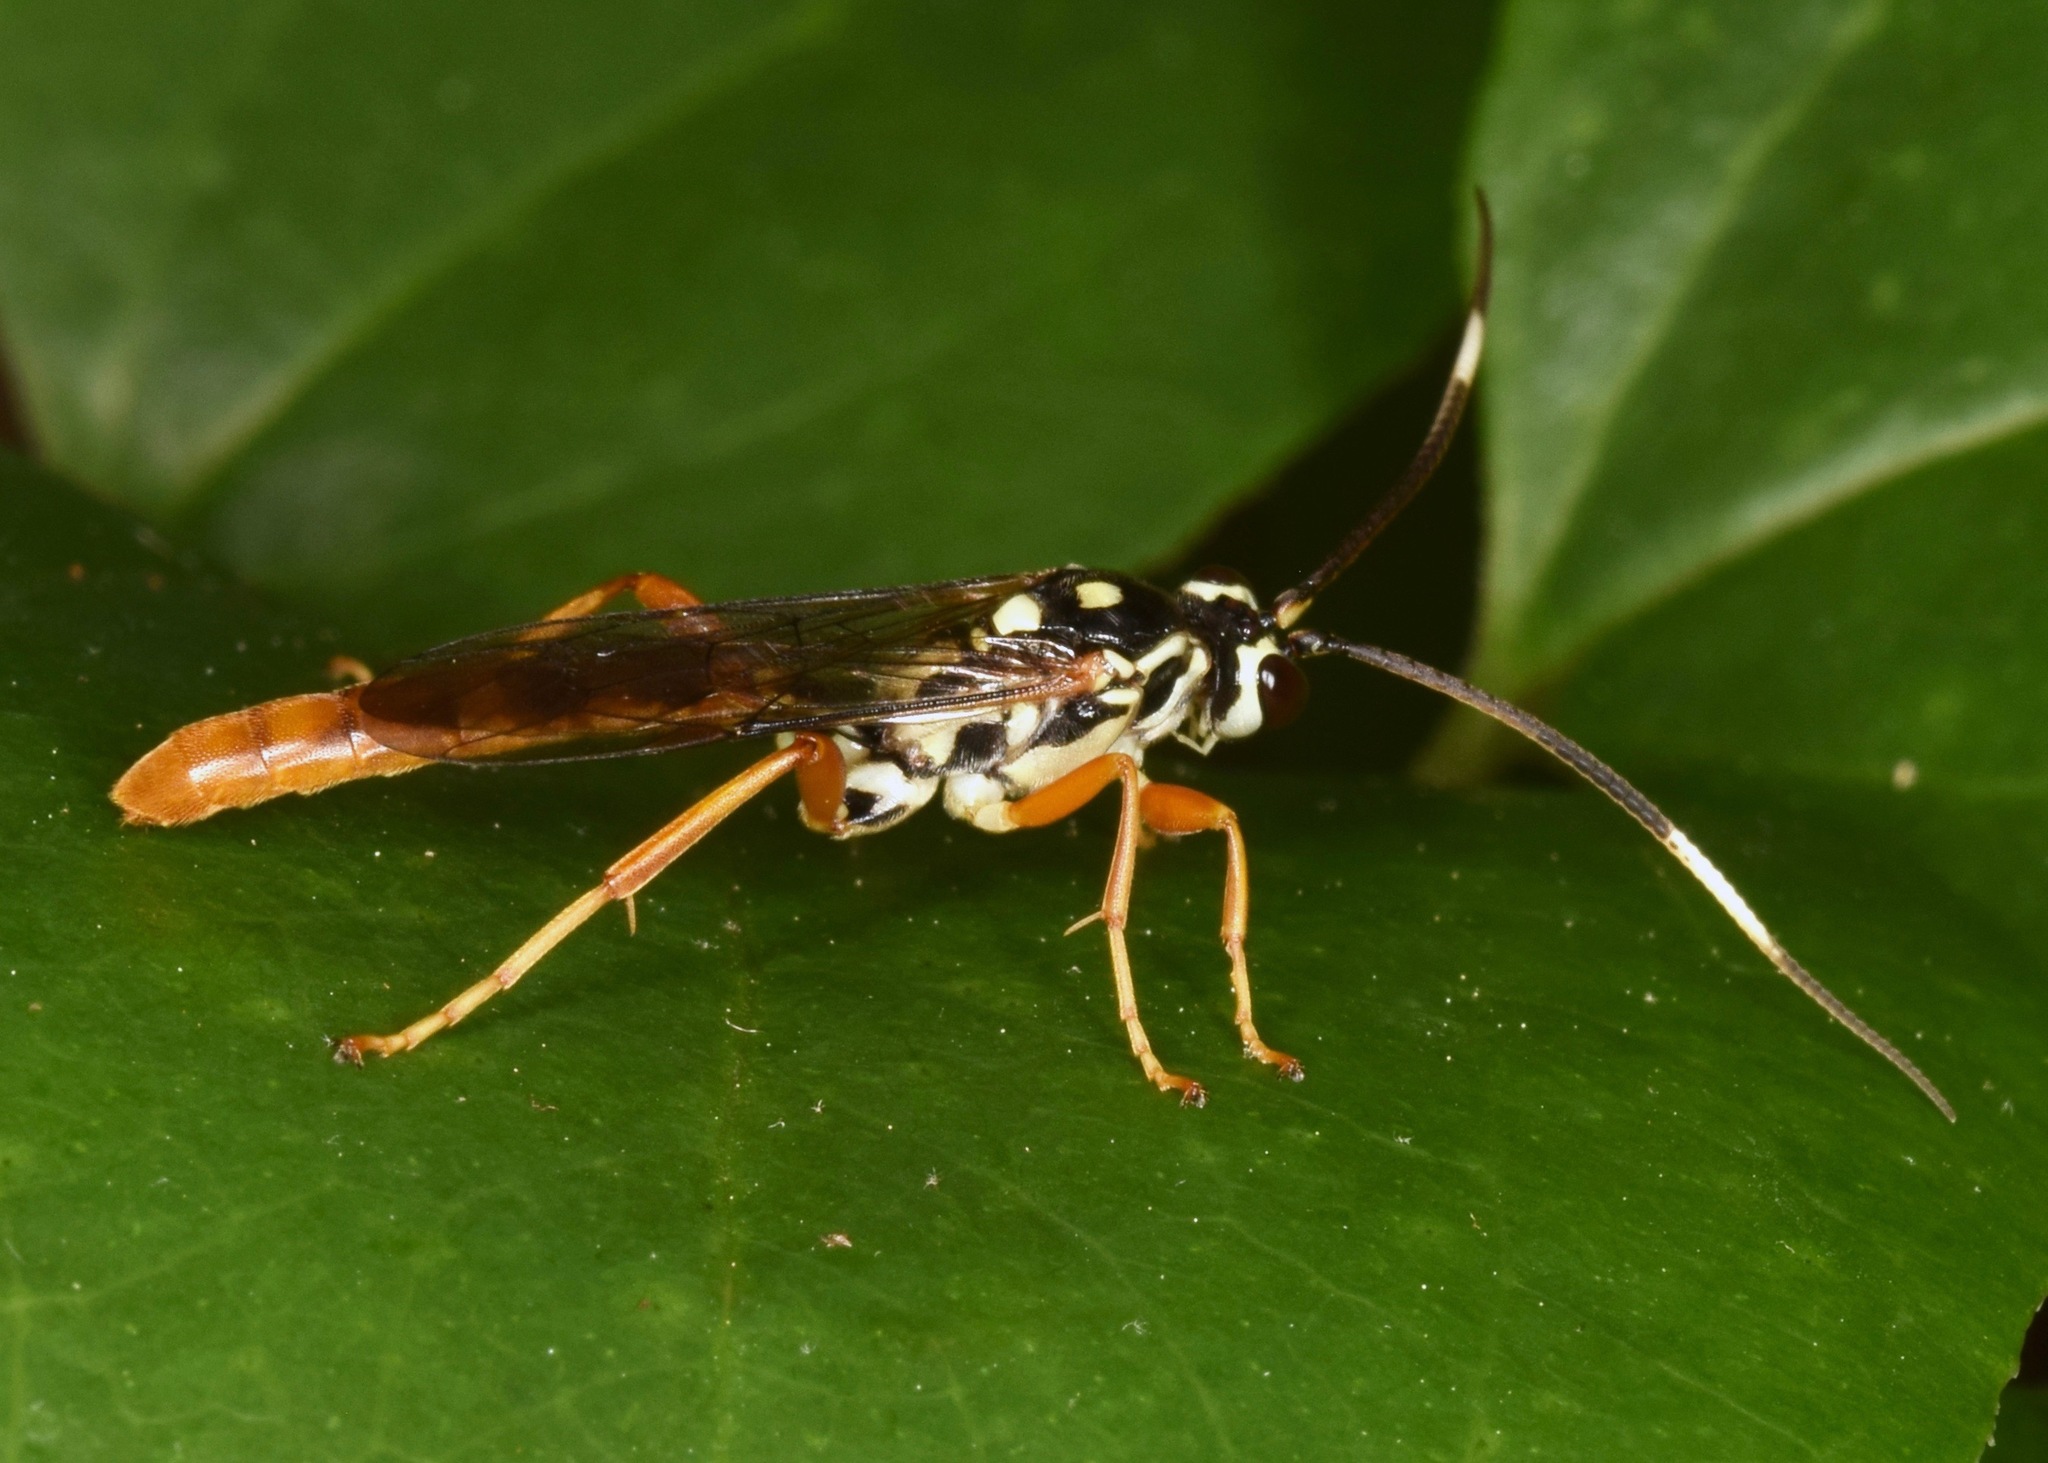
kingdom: Animalia
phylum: Arthropoda
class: Insecta
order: Hymenoptera
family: Ichneumonidae
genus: Cratichneumon
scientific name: Cratichneumon w-album
